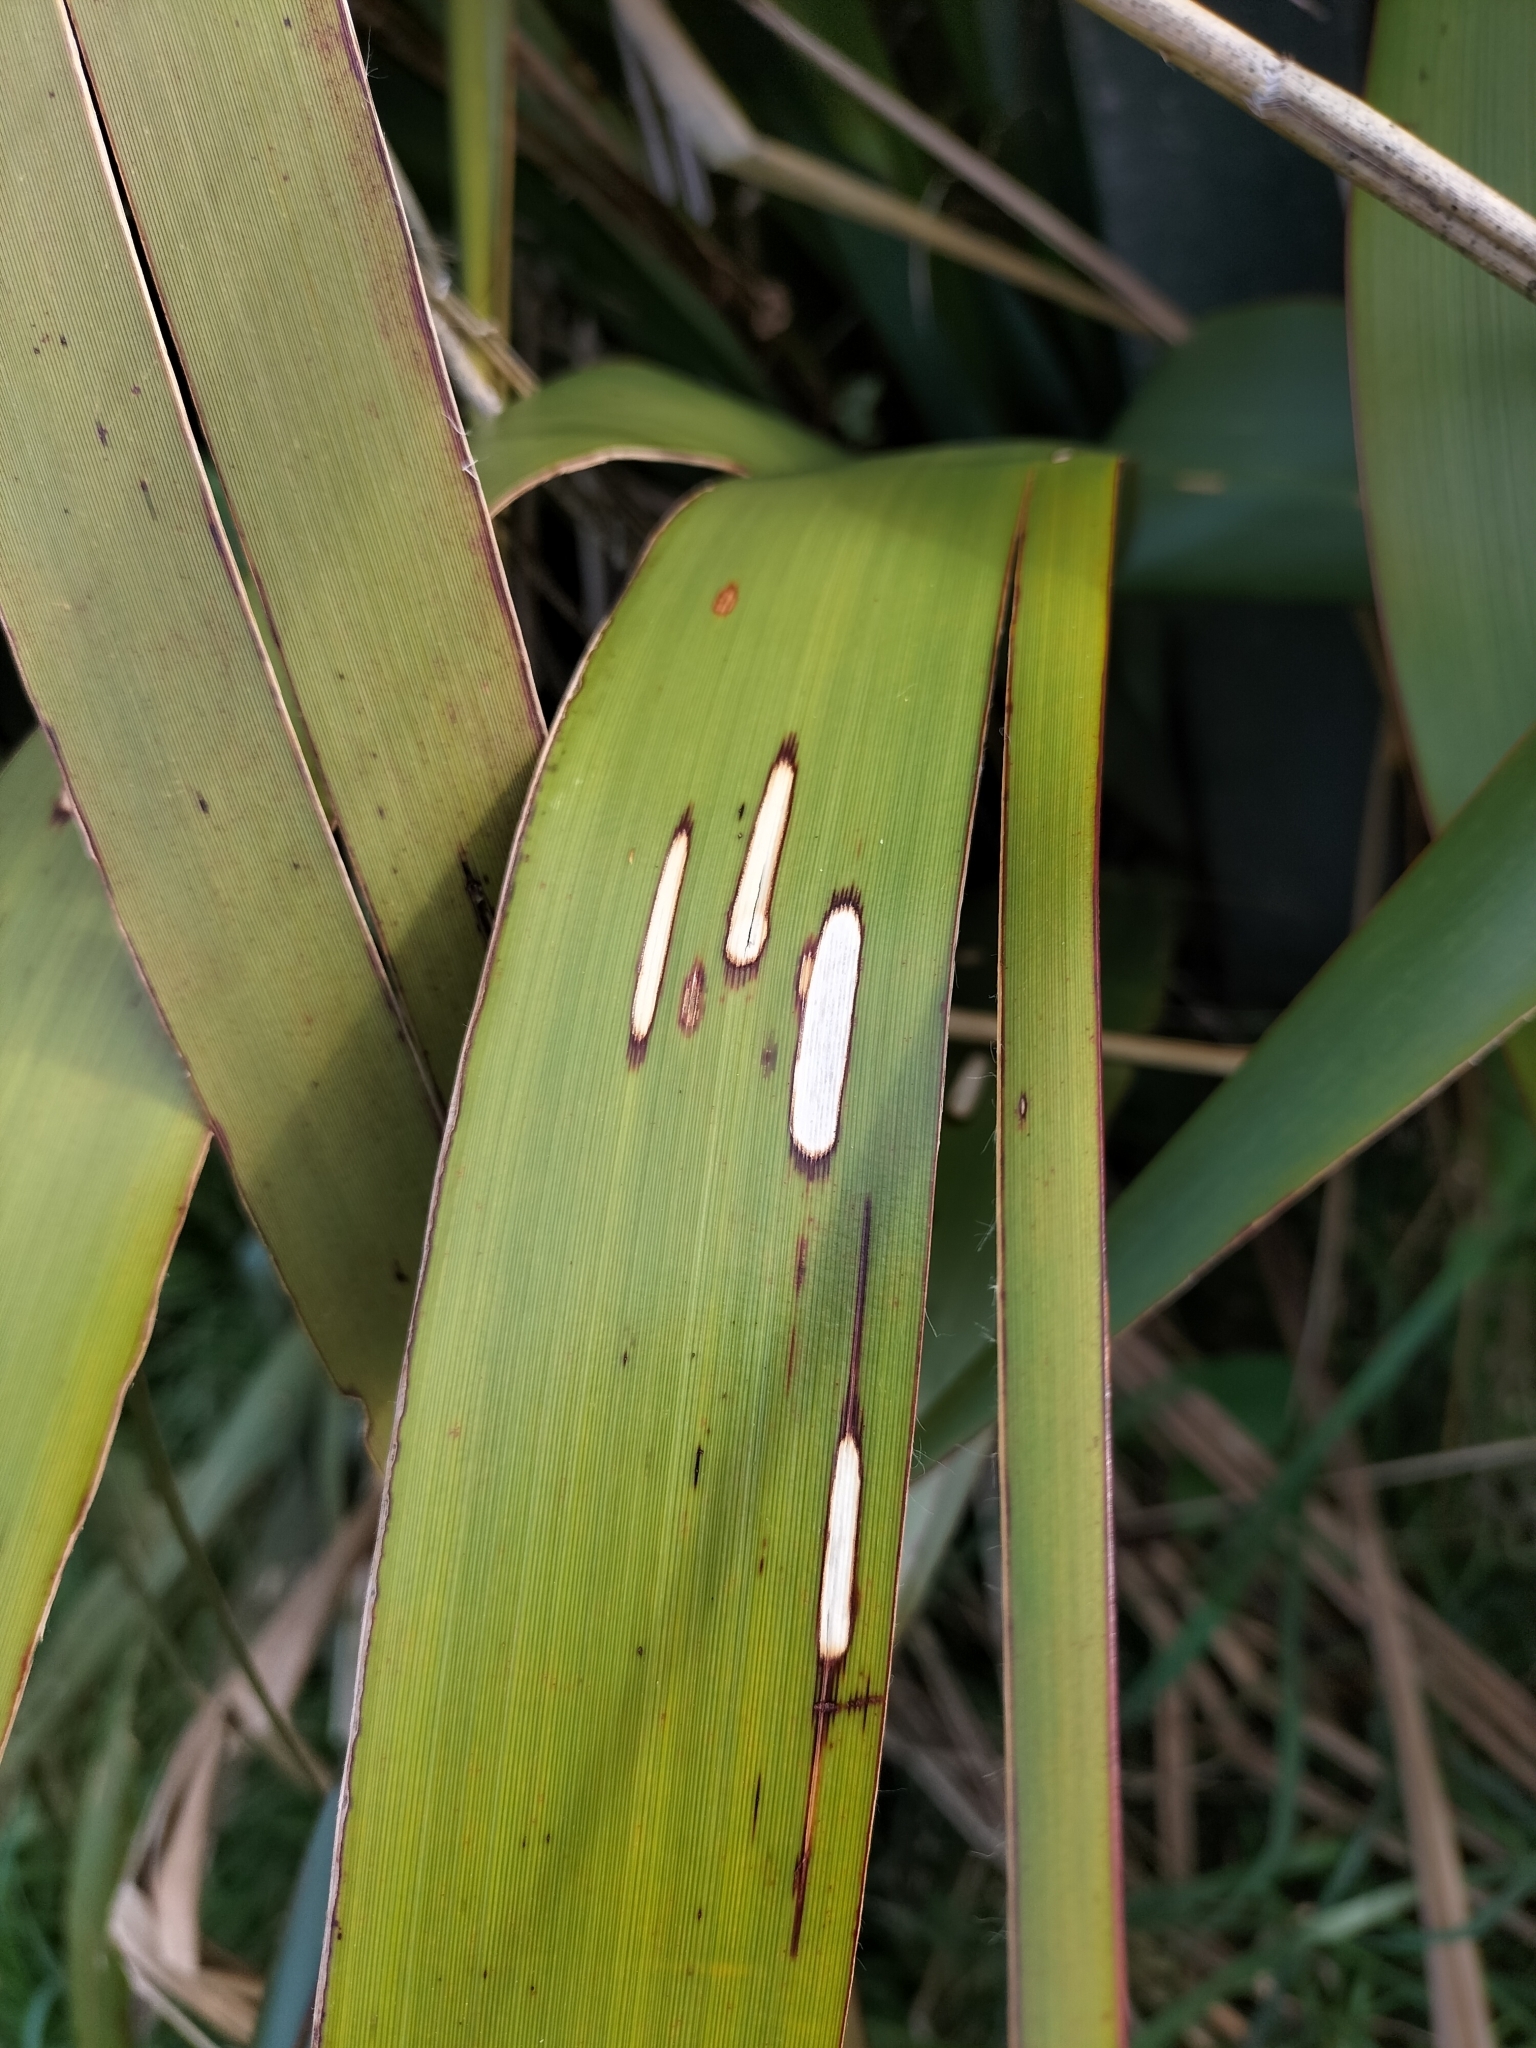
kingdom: Animalia
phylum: Arthropoda
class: Insecta
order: Lepidoptera
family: Geometridae
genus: Orthoclydon
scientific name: Orthoclydon praefectata
